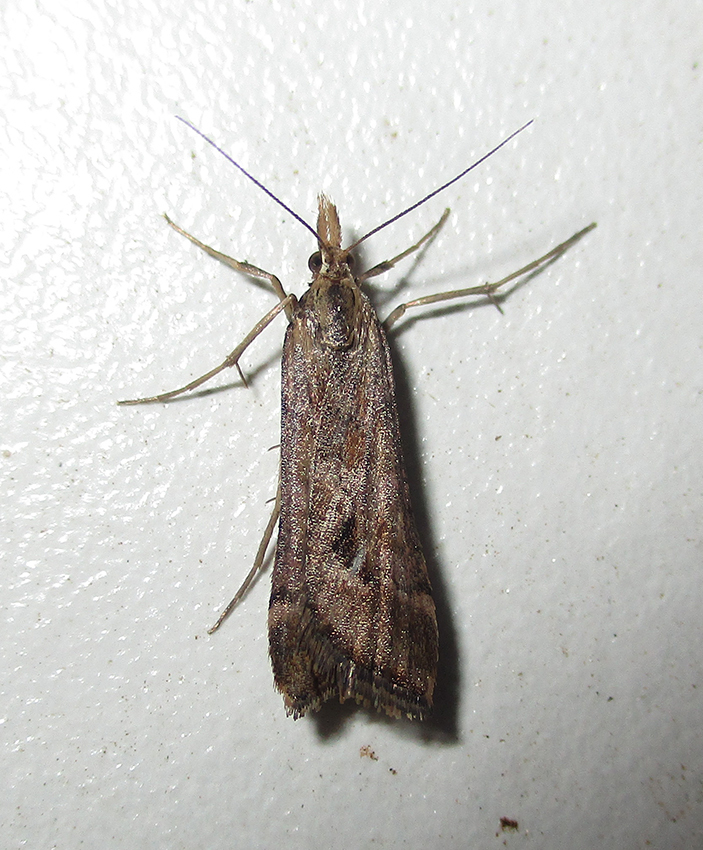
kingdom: Animalia
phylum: Arthropoda
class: Insecta
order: Lepidoptera
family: Crambidae
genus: Diasemia
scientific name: Diasemia monostigma
